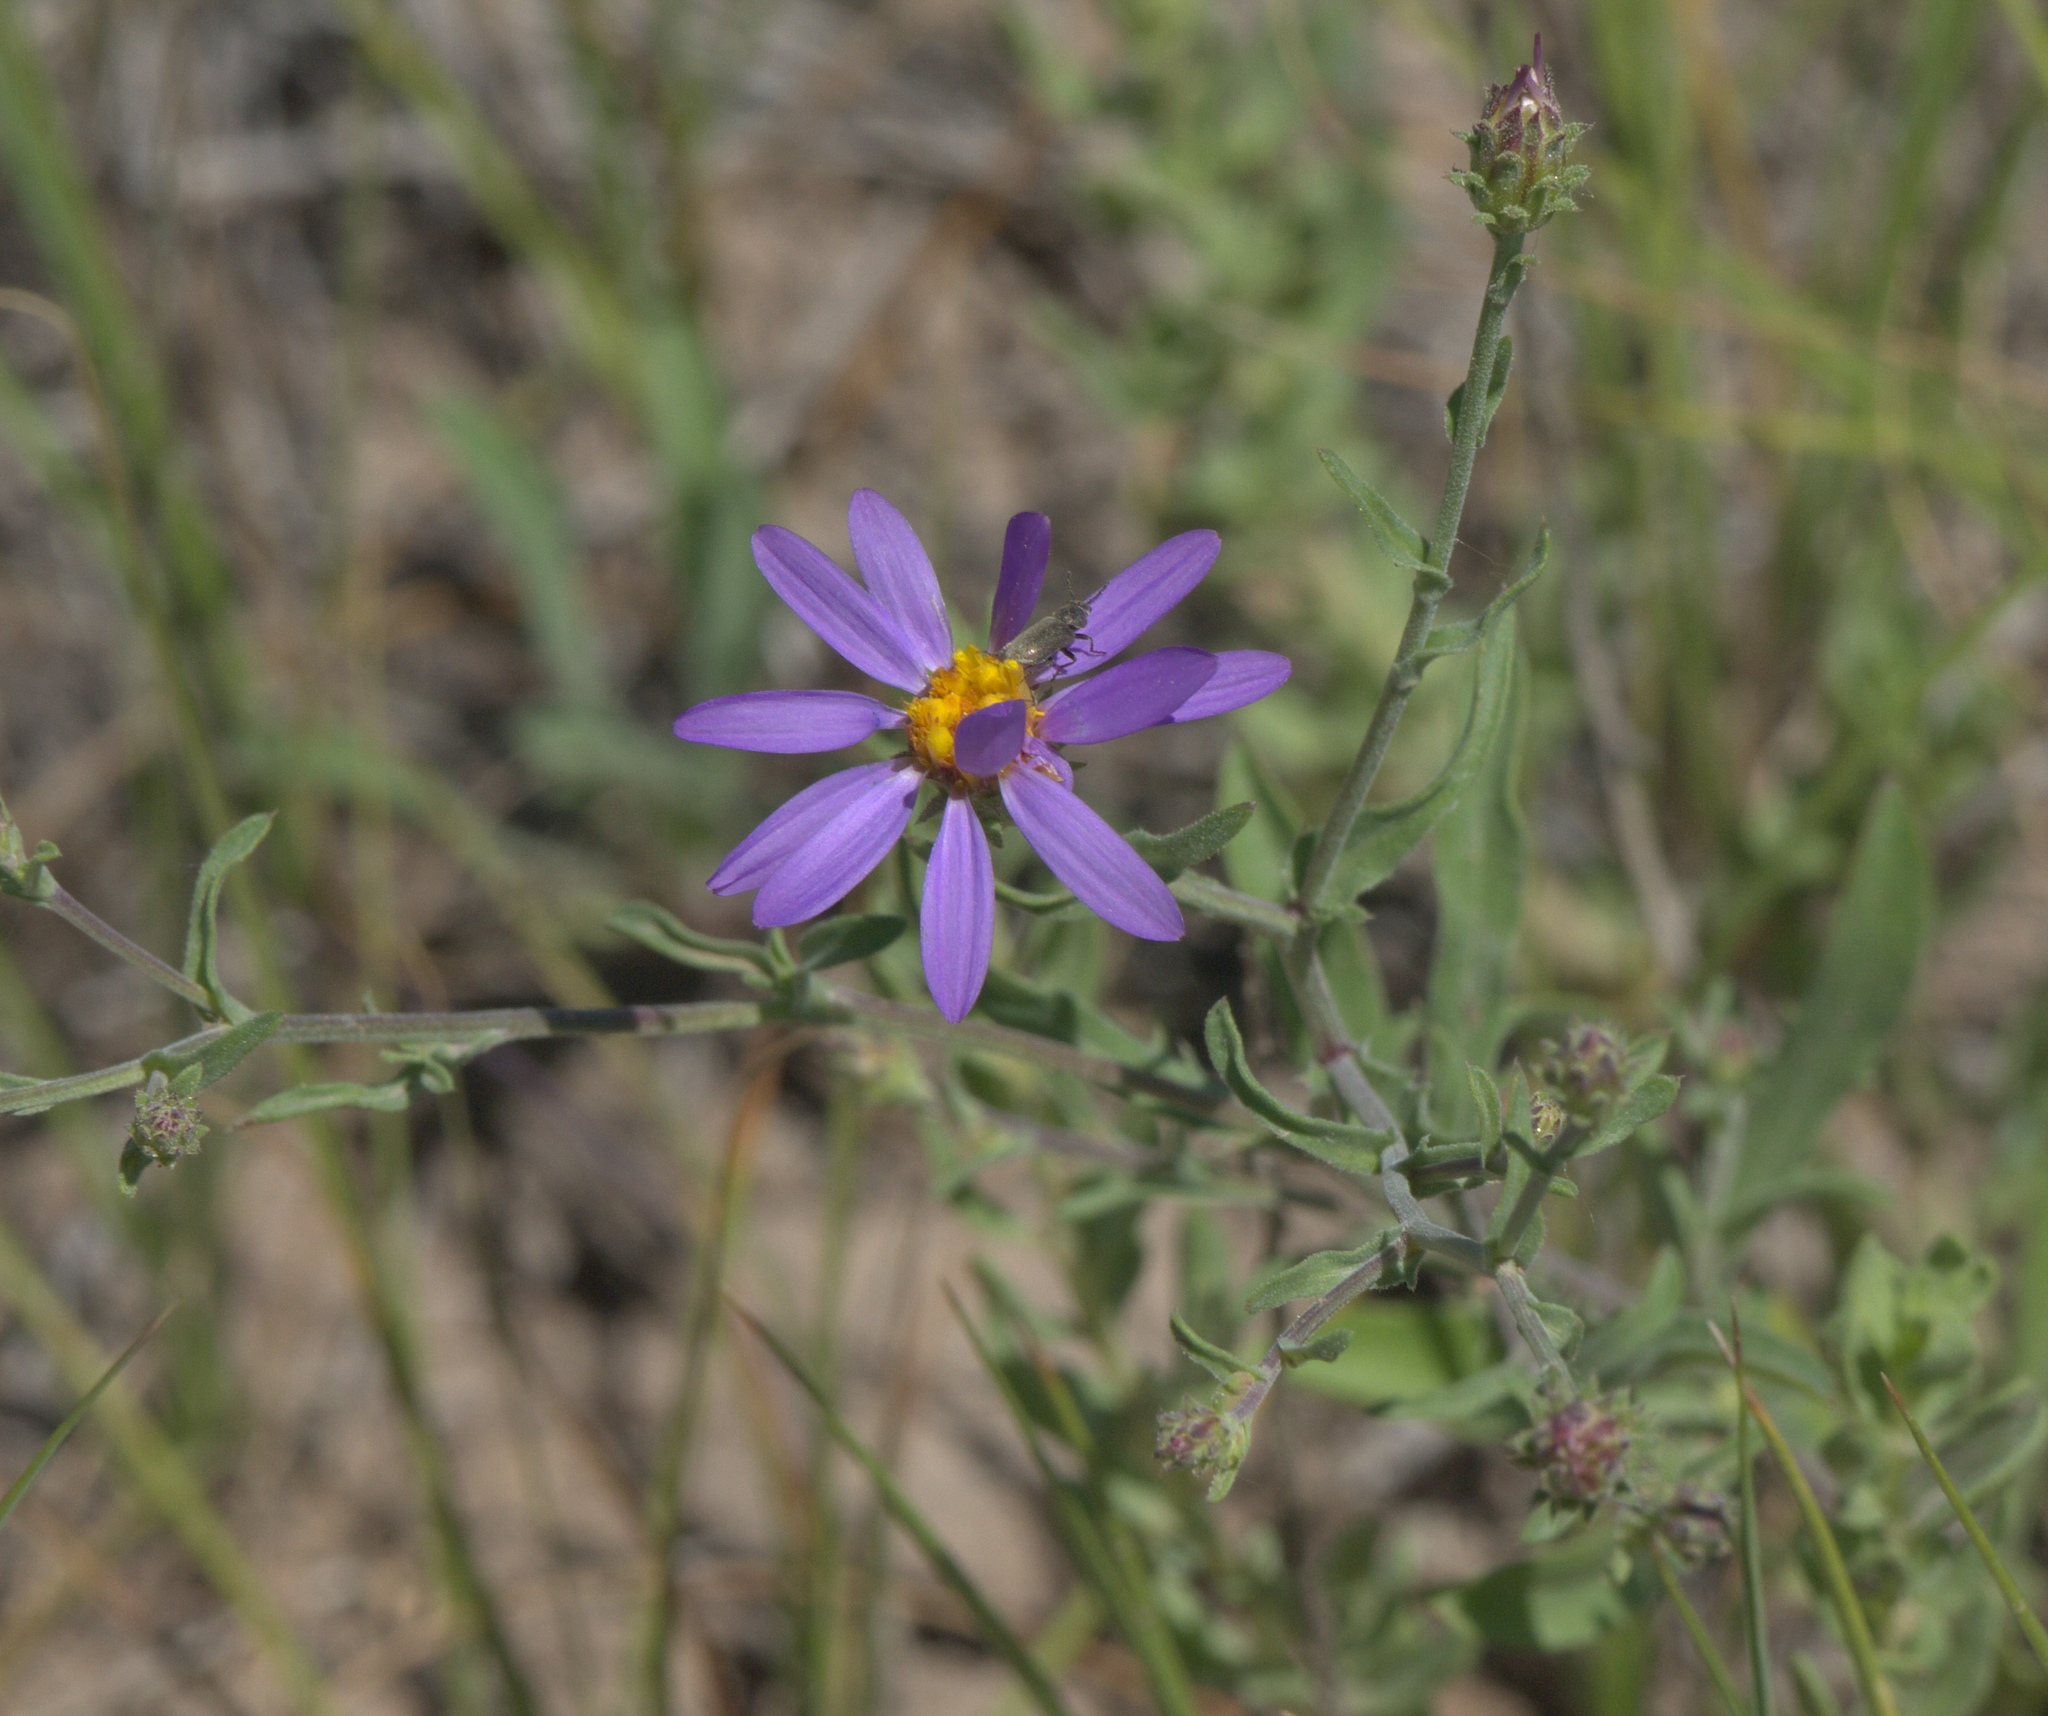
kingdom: Plantae
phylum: Tracheophyta
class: Magnoliopsida
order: Asterales
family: Asteraceae
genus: Dieteria
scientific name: Dieteria canescens
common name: Hoary-aster
